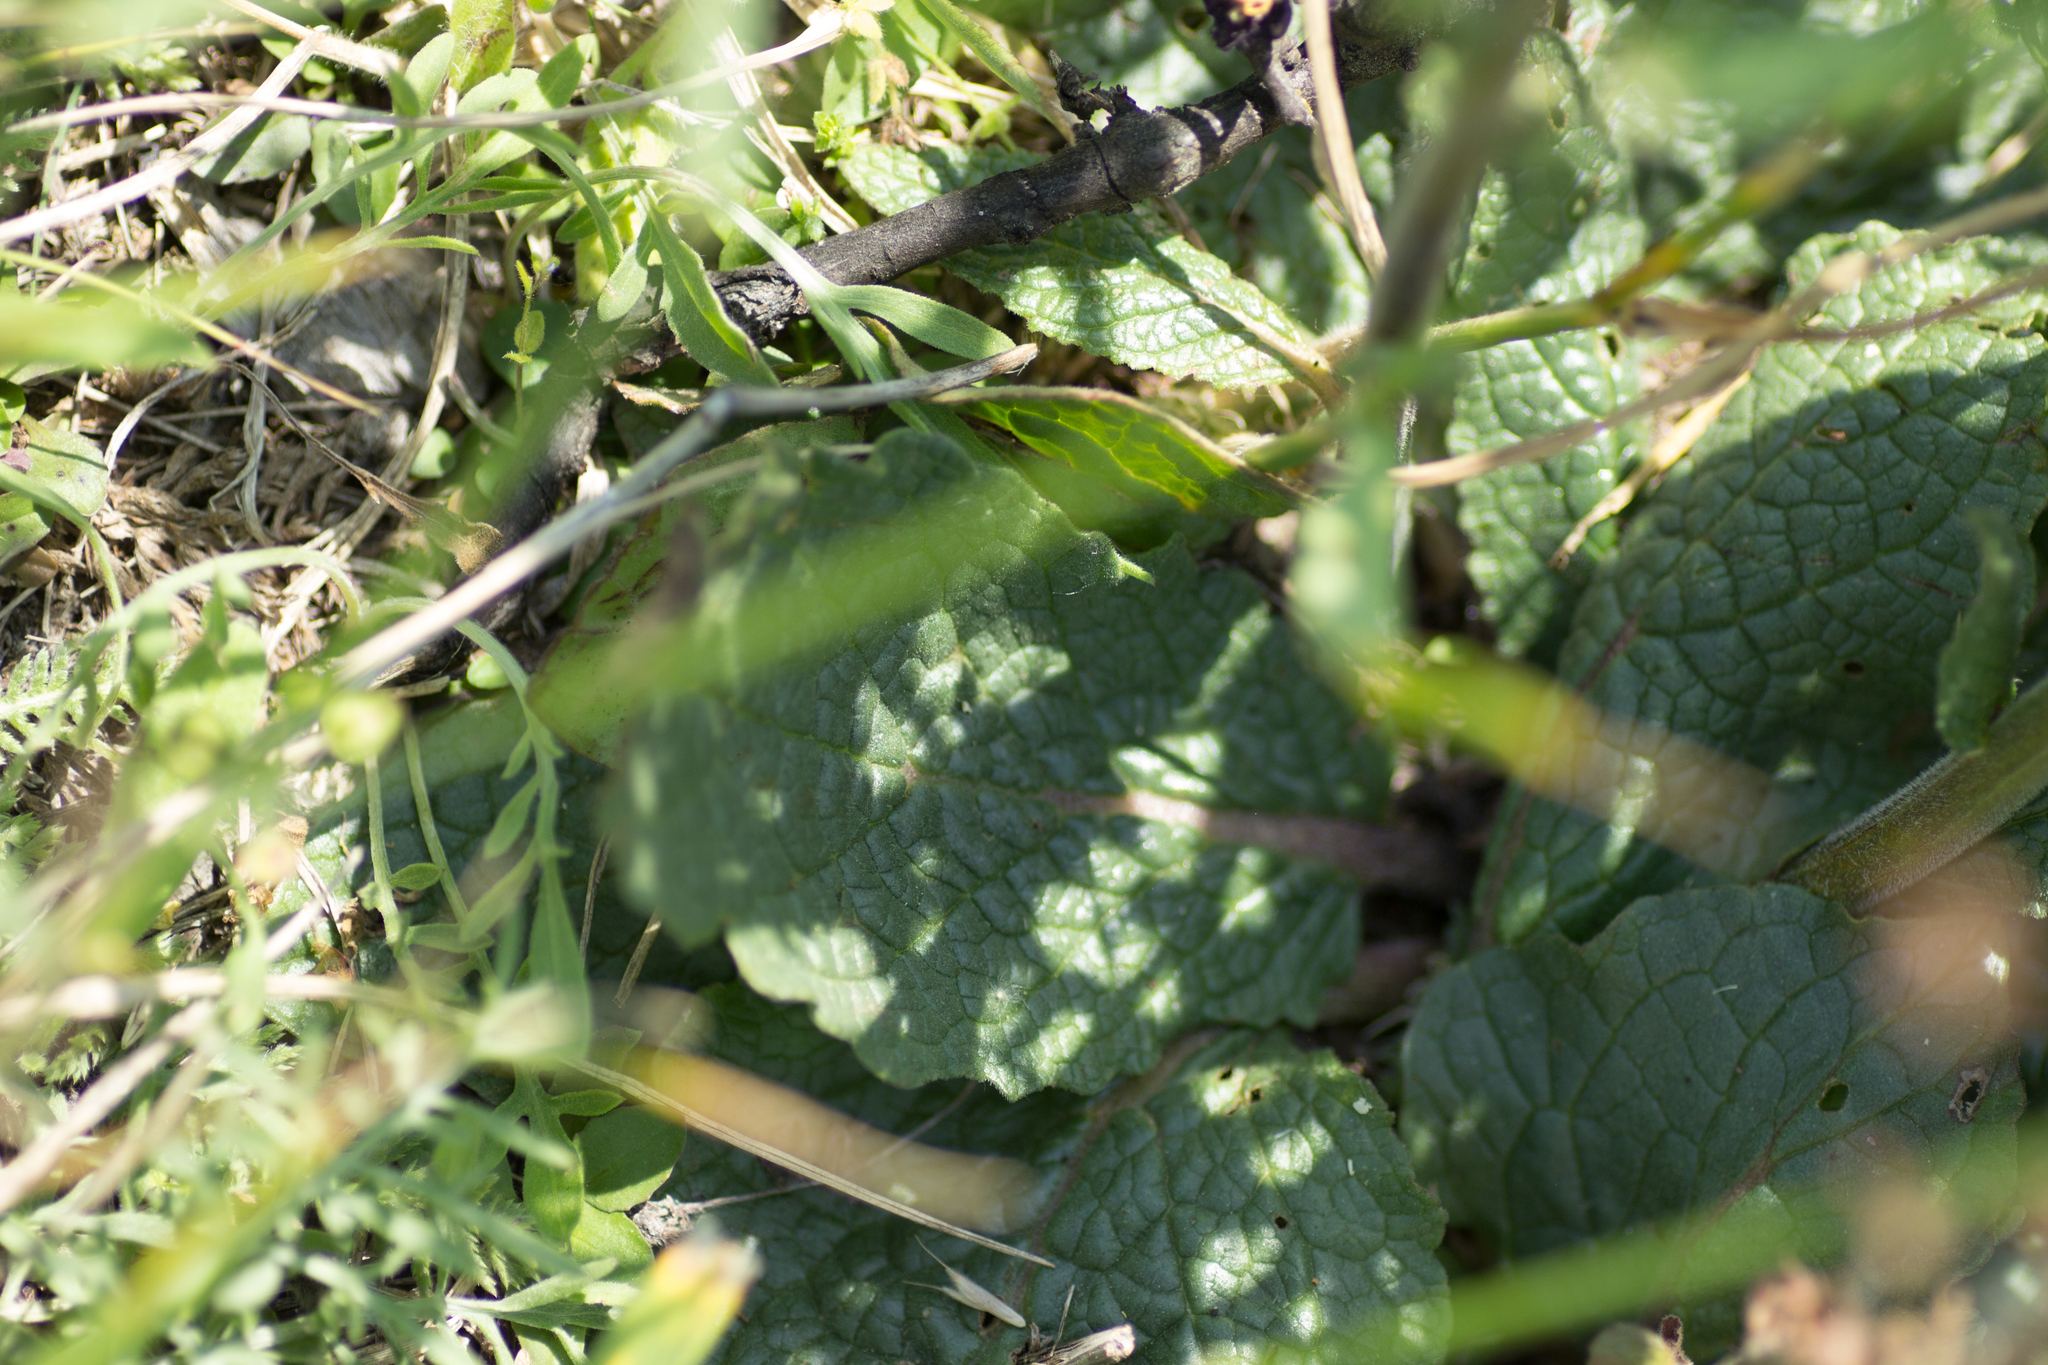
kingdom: Plantae
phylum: Tracheophyta
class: Magnoliopsida
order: Lamiales
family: Scrophulariaceae
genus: Verbascum
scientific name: Verbascum phoeniceum
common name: Purple mullein
